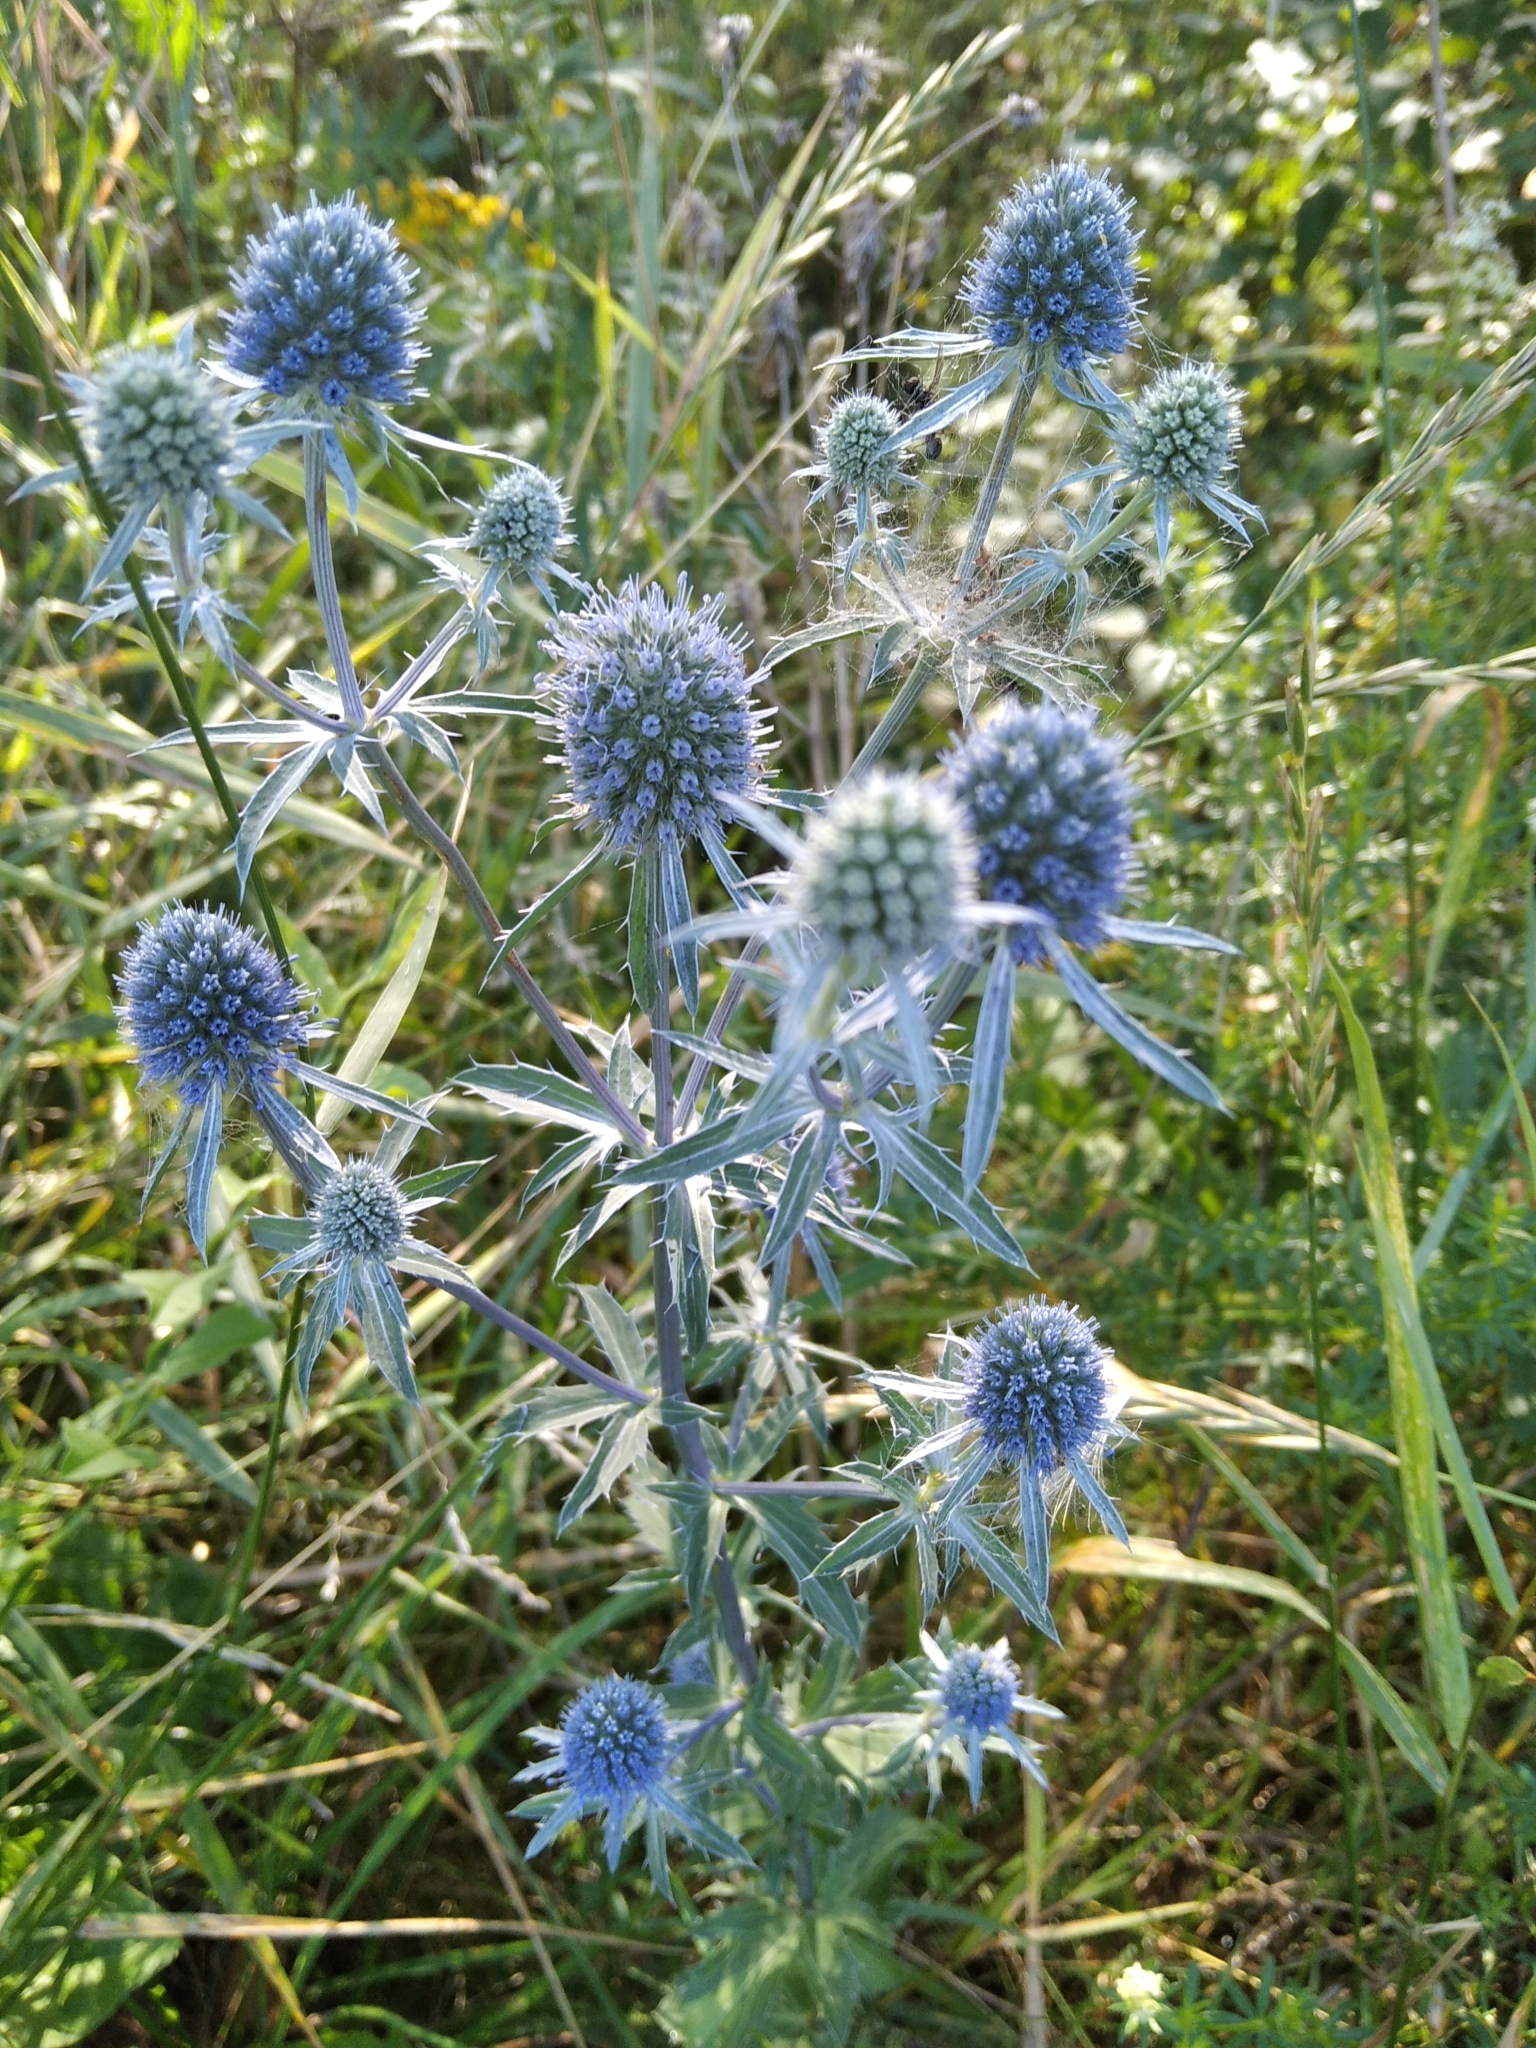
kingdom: Plantae
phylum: Tracheophyta
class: Magnoliopsida
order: Apiales
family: Apiaceae
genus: Eryngium
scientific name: Eryngium planum
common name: Blue eryngo
